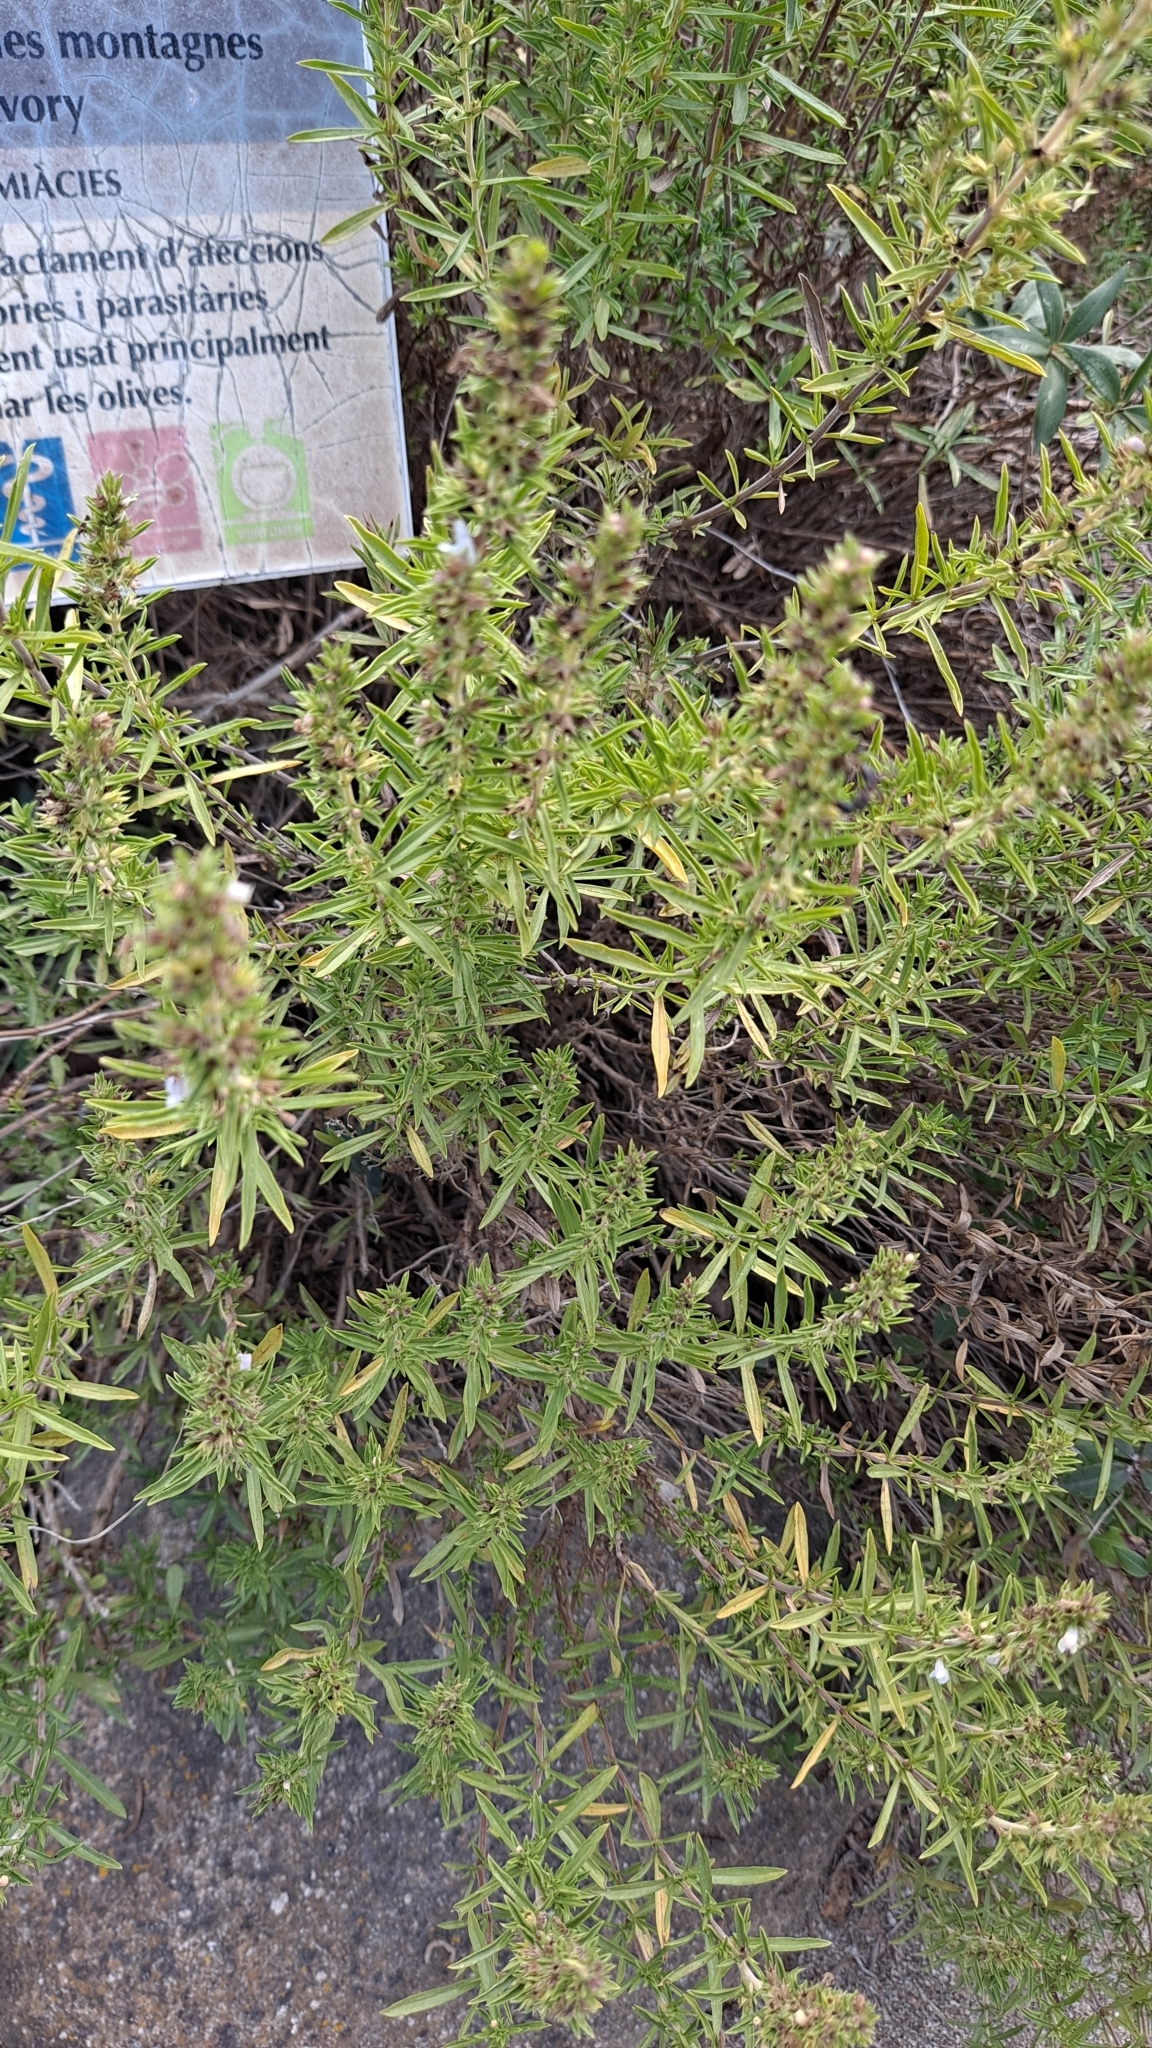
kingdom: Plantae
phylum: Tracheophyta
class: Magnoliopsida
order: Lamiales
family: Lamiaceae
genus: Satureja
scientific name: Satureja montana
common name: Winter savory
